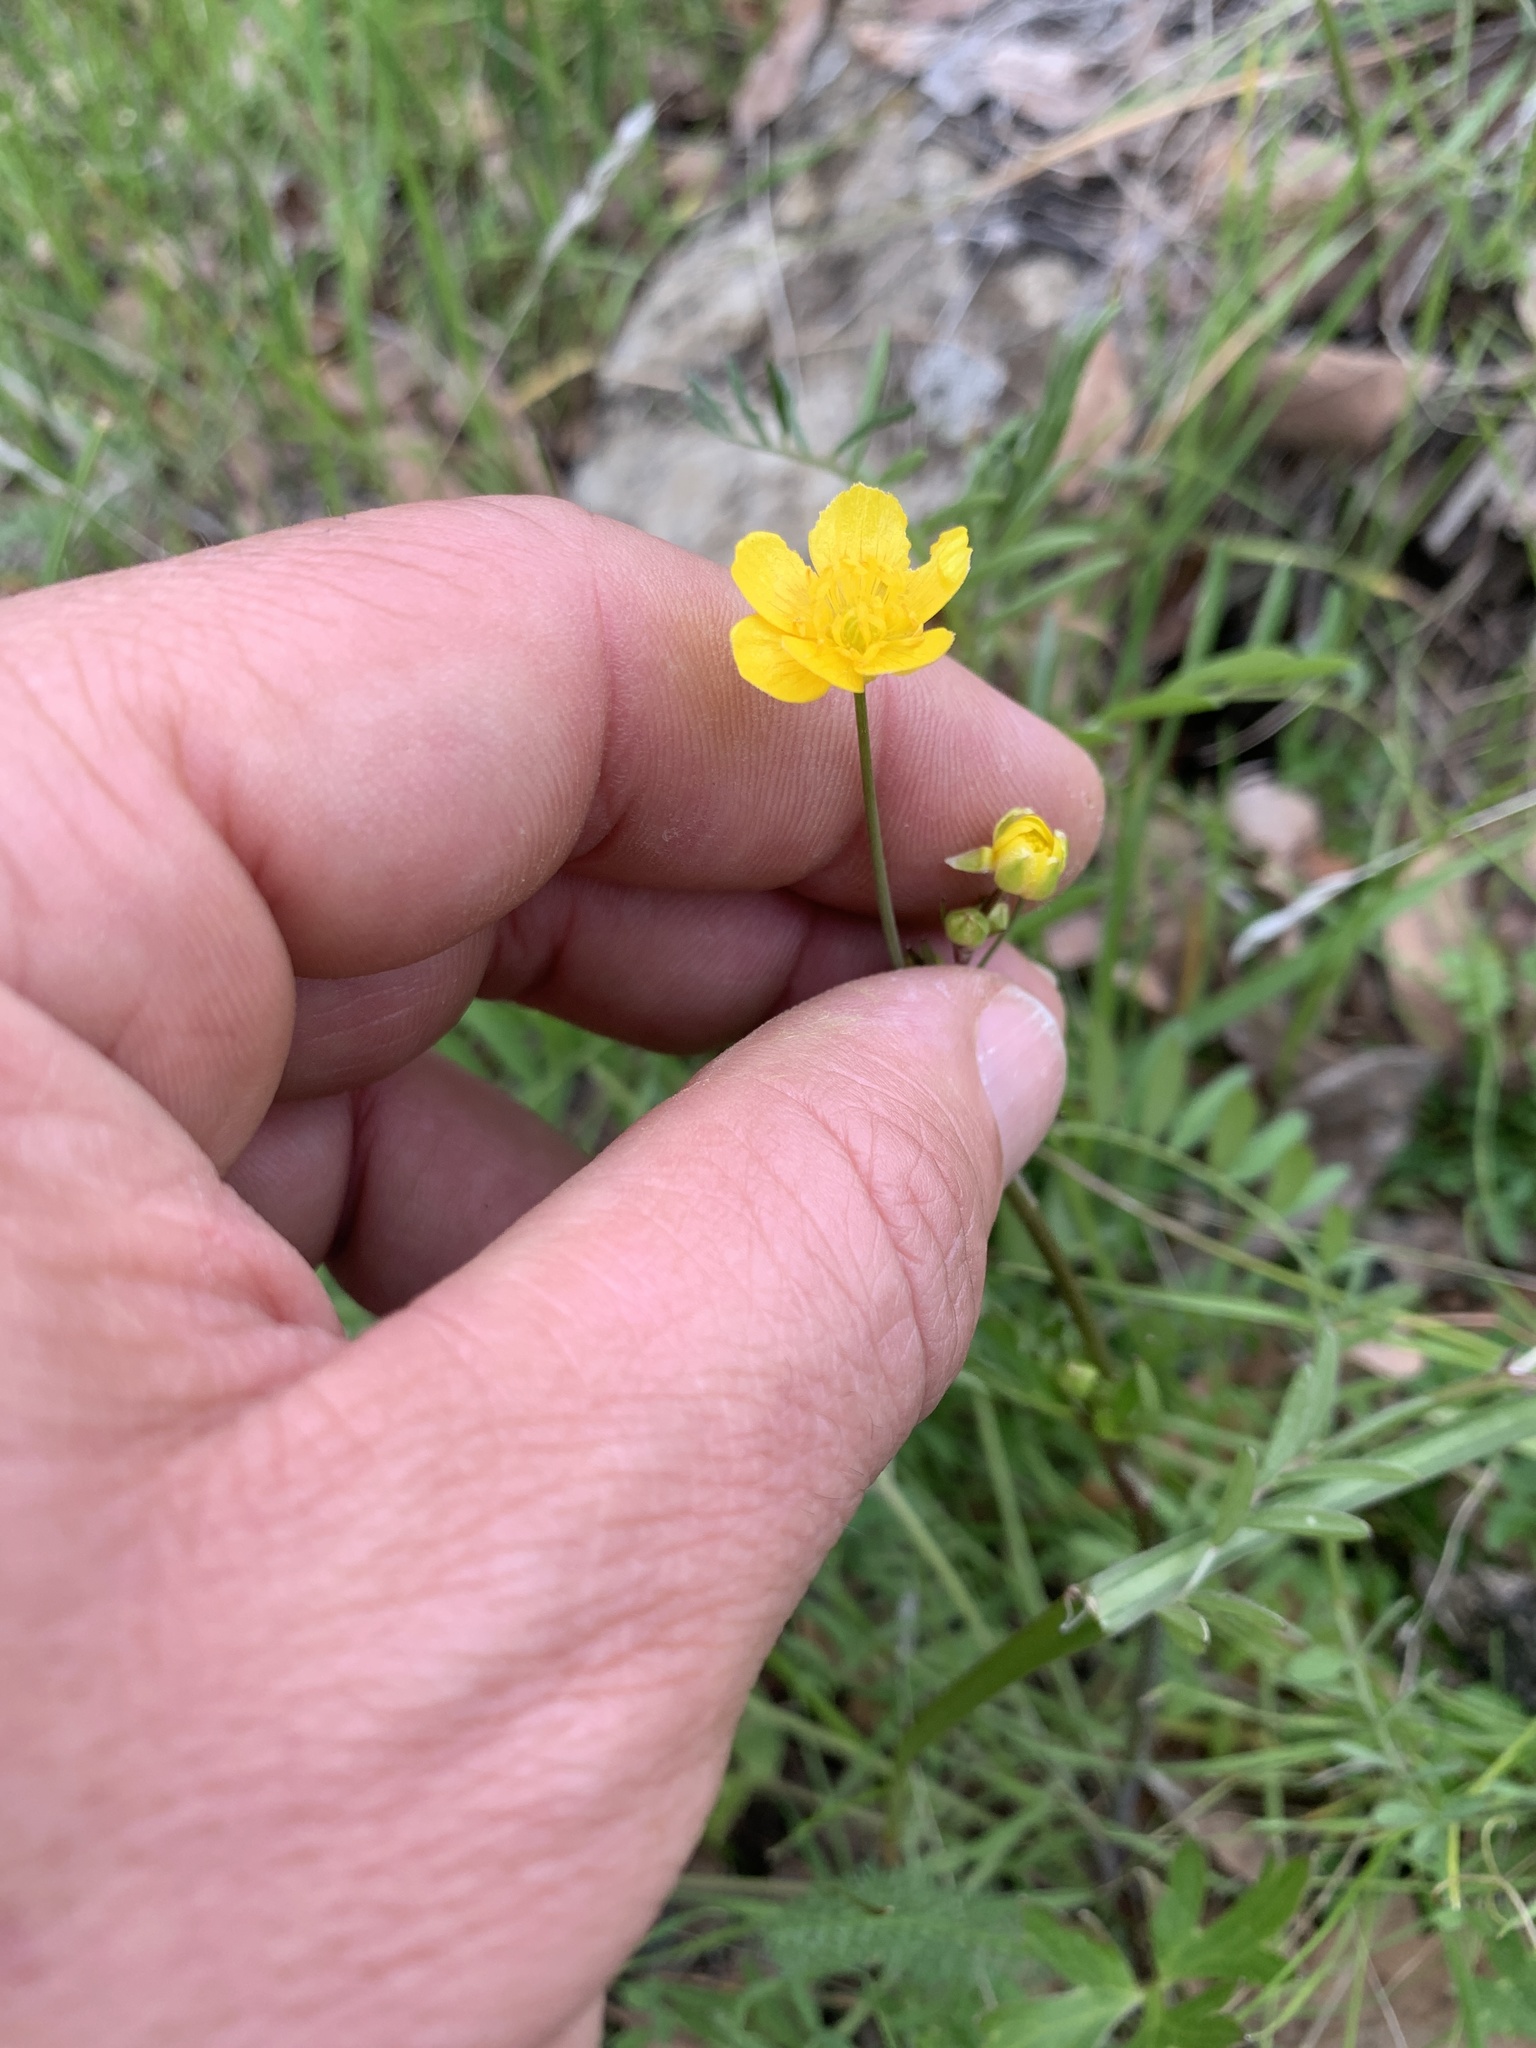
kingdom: Plantae
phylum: Tracheophyta
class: Magnoliopsida
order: Ranunculales
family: Ranunculaceae
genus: Ranunculus
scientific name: Ranunculus occidentalis
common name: Western buttercup
